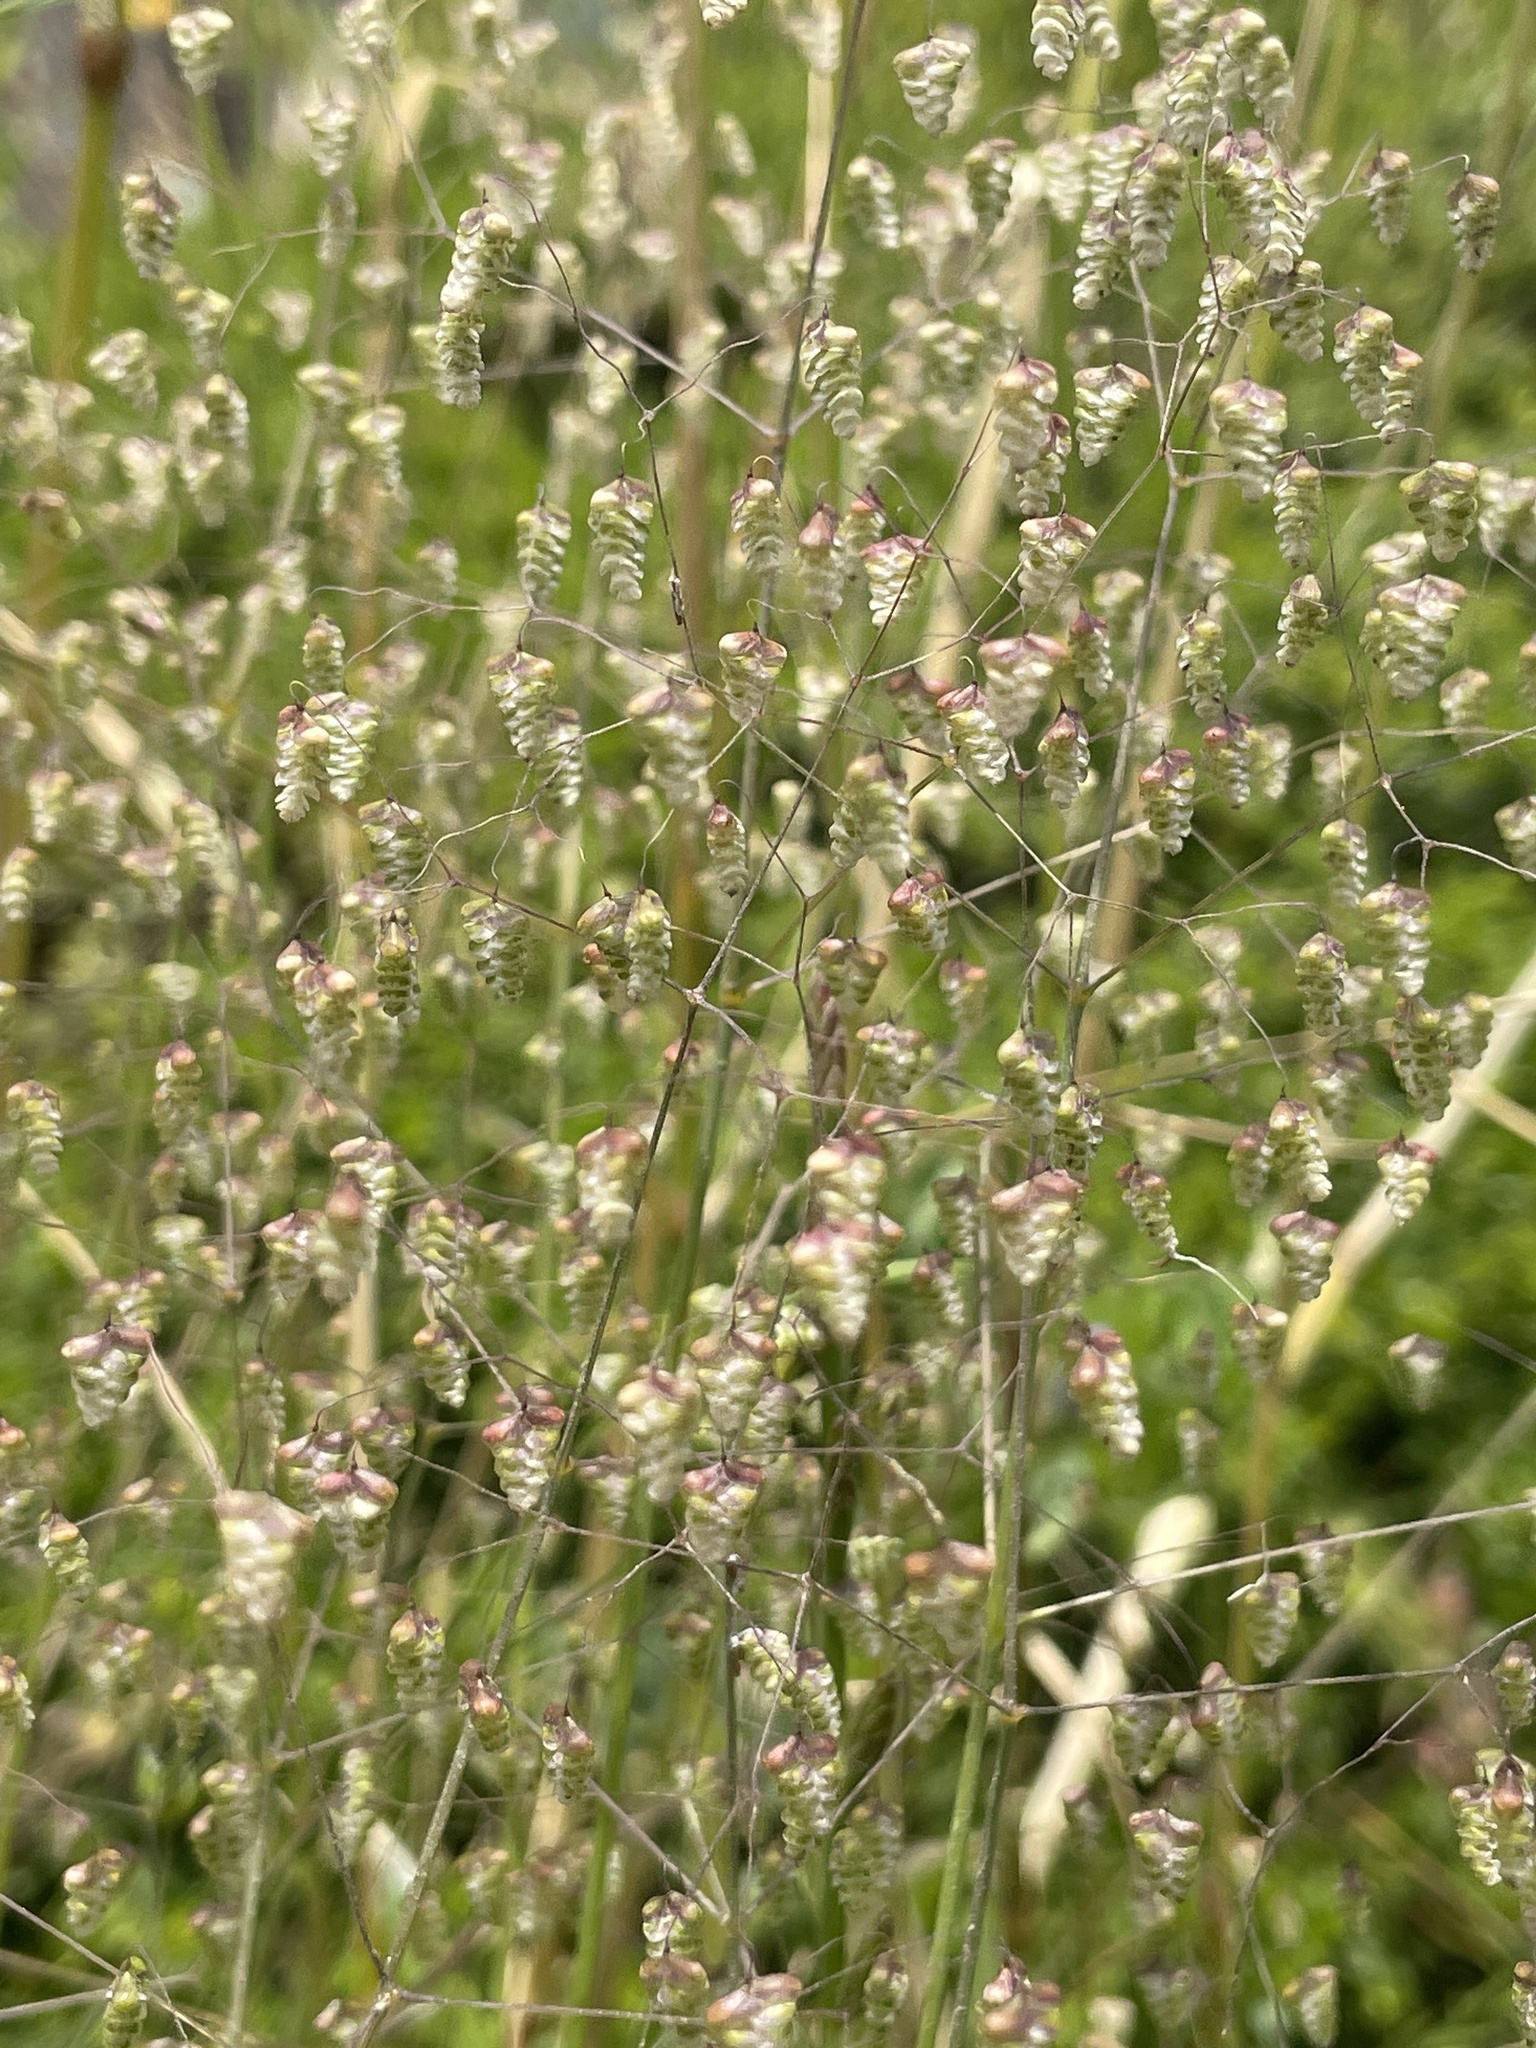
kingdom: Plantae
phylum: Tracheophyta
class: Liliopsida
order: Poales
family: Poaceae
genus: Briza
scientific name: Briza minor
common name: Lesser quaking-grass
